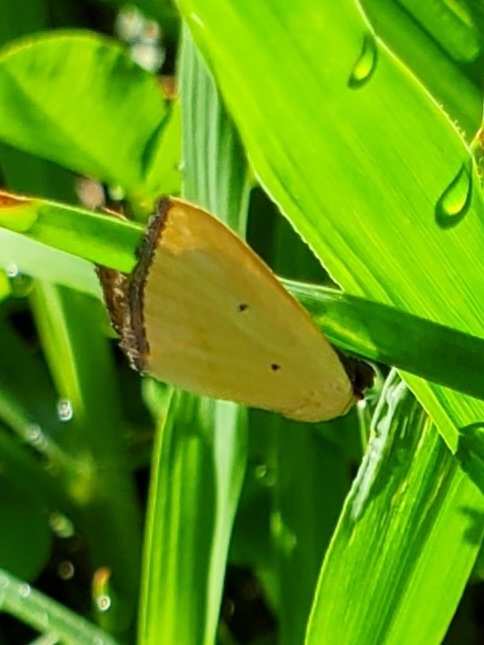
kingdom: Animalia
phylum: Arthropoda
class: Insecta
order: Lepidoptera
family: Noctuidae
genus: Marimatha
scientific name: Marimatha nigrofimbria
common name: Black-bordered lemon moth
